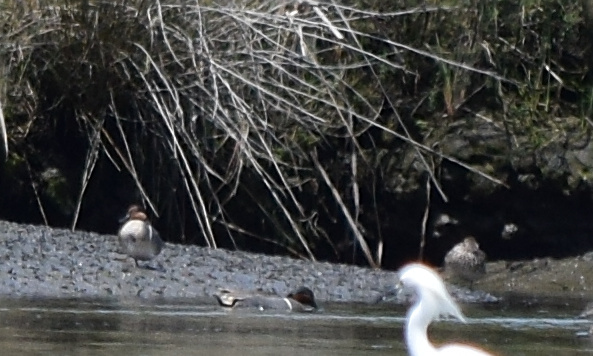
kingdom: Animalia
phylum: Chordata
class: Aves
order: Anseriformes
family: Anatidae
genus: Anas
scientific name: Anas crecca
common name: Eurasian teal
